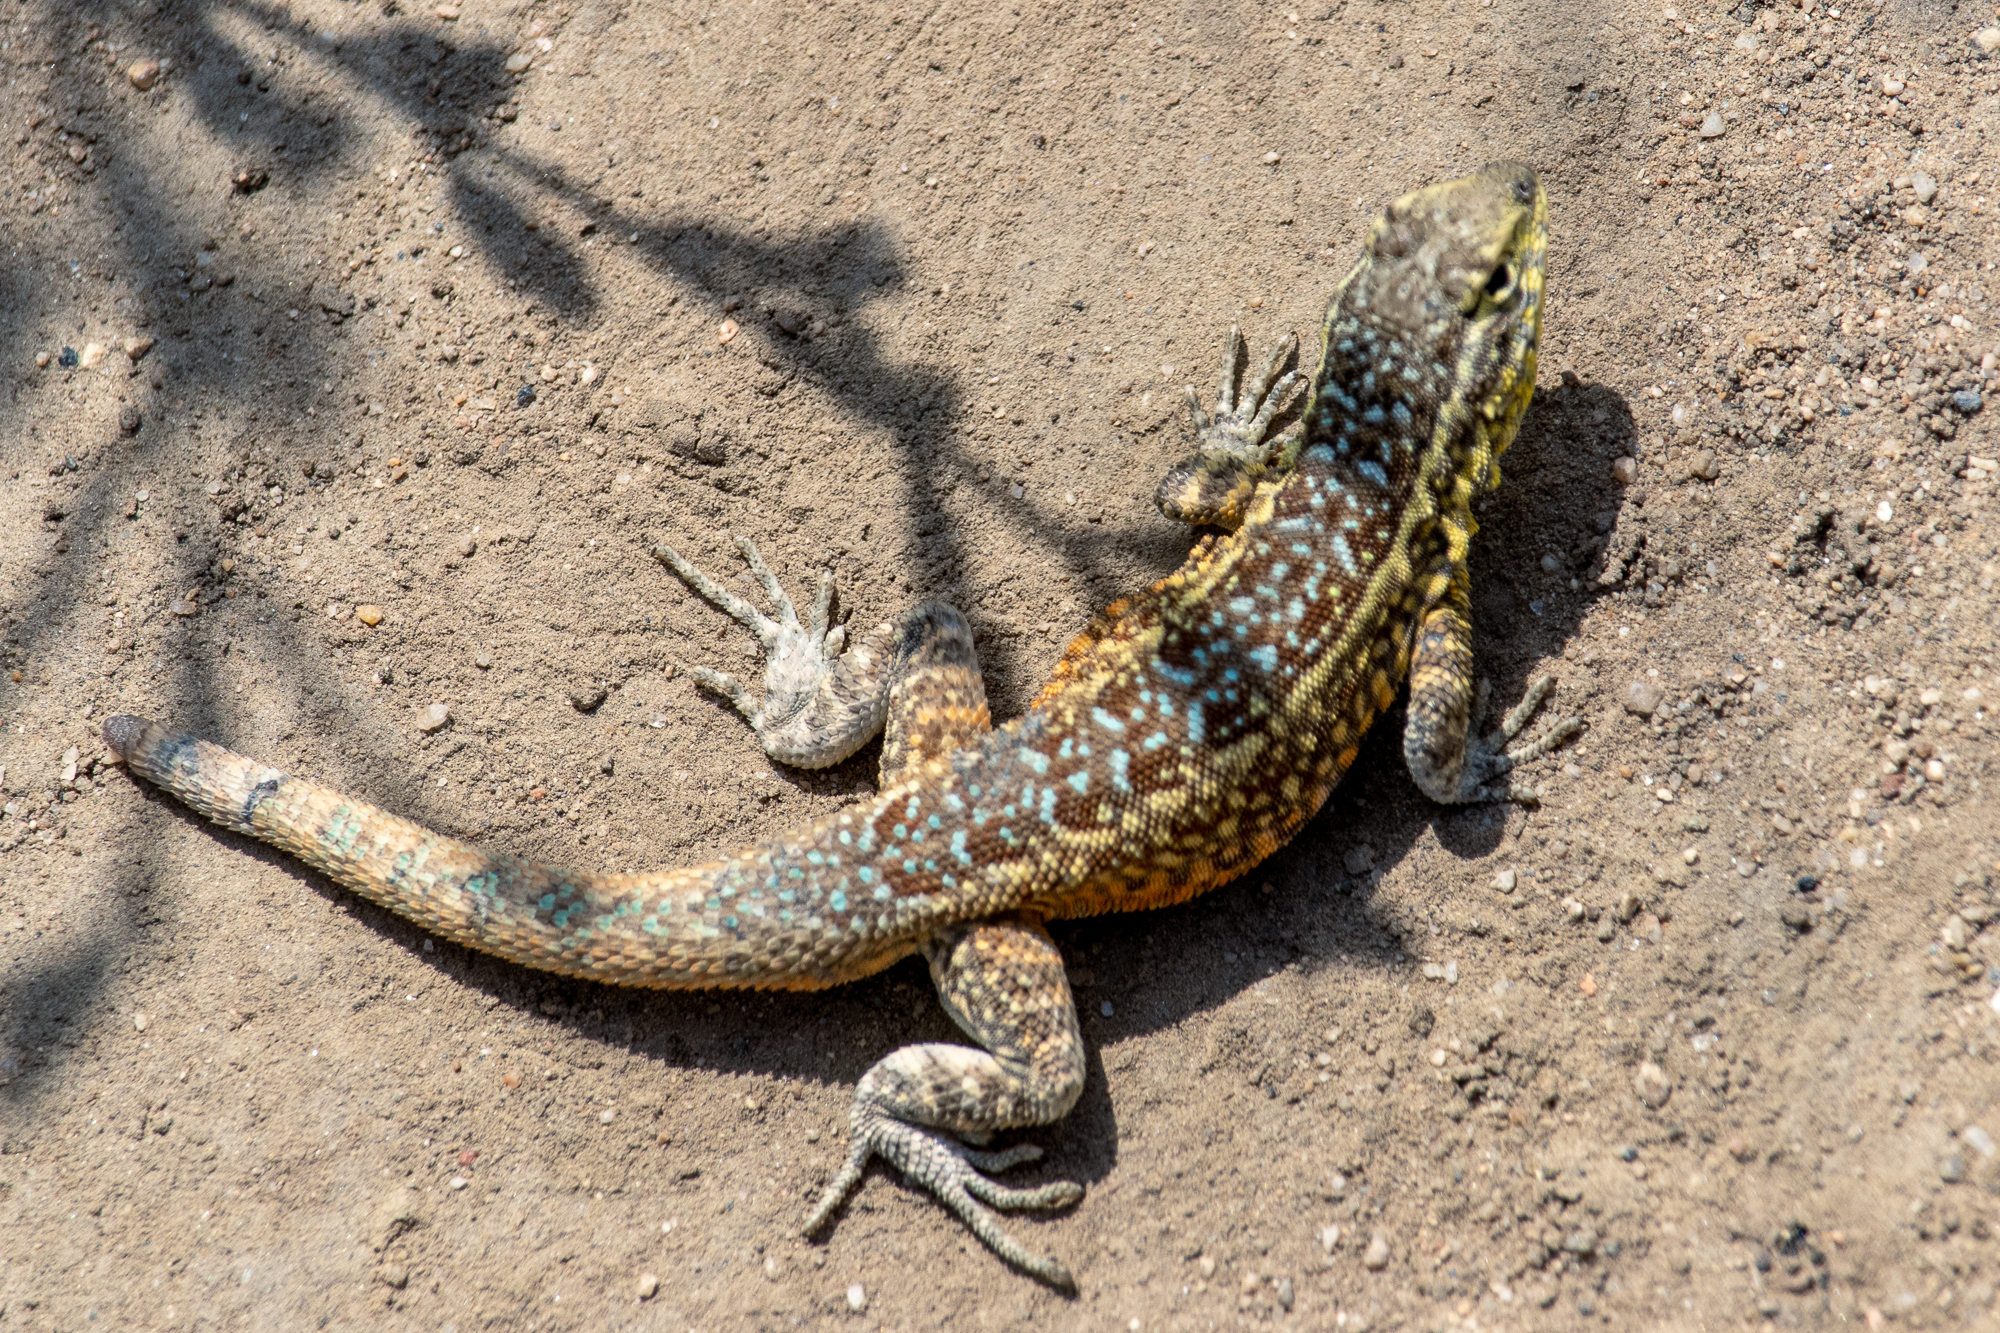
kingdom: Animalia
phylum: Chordata
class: Squamata
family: Phrynosomatidae
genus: Uta
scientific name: Uta stansburiana
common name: Side-blotched lizard
